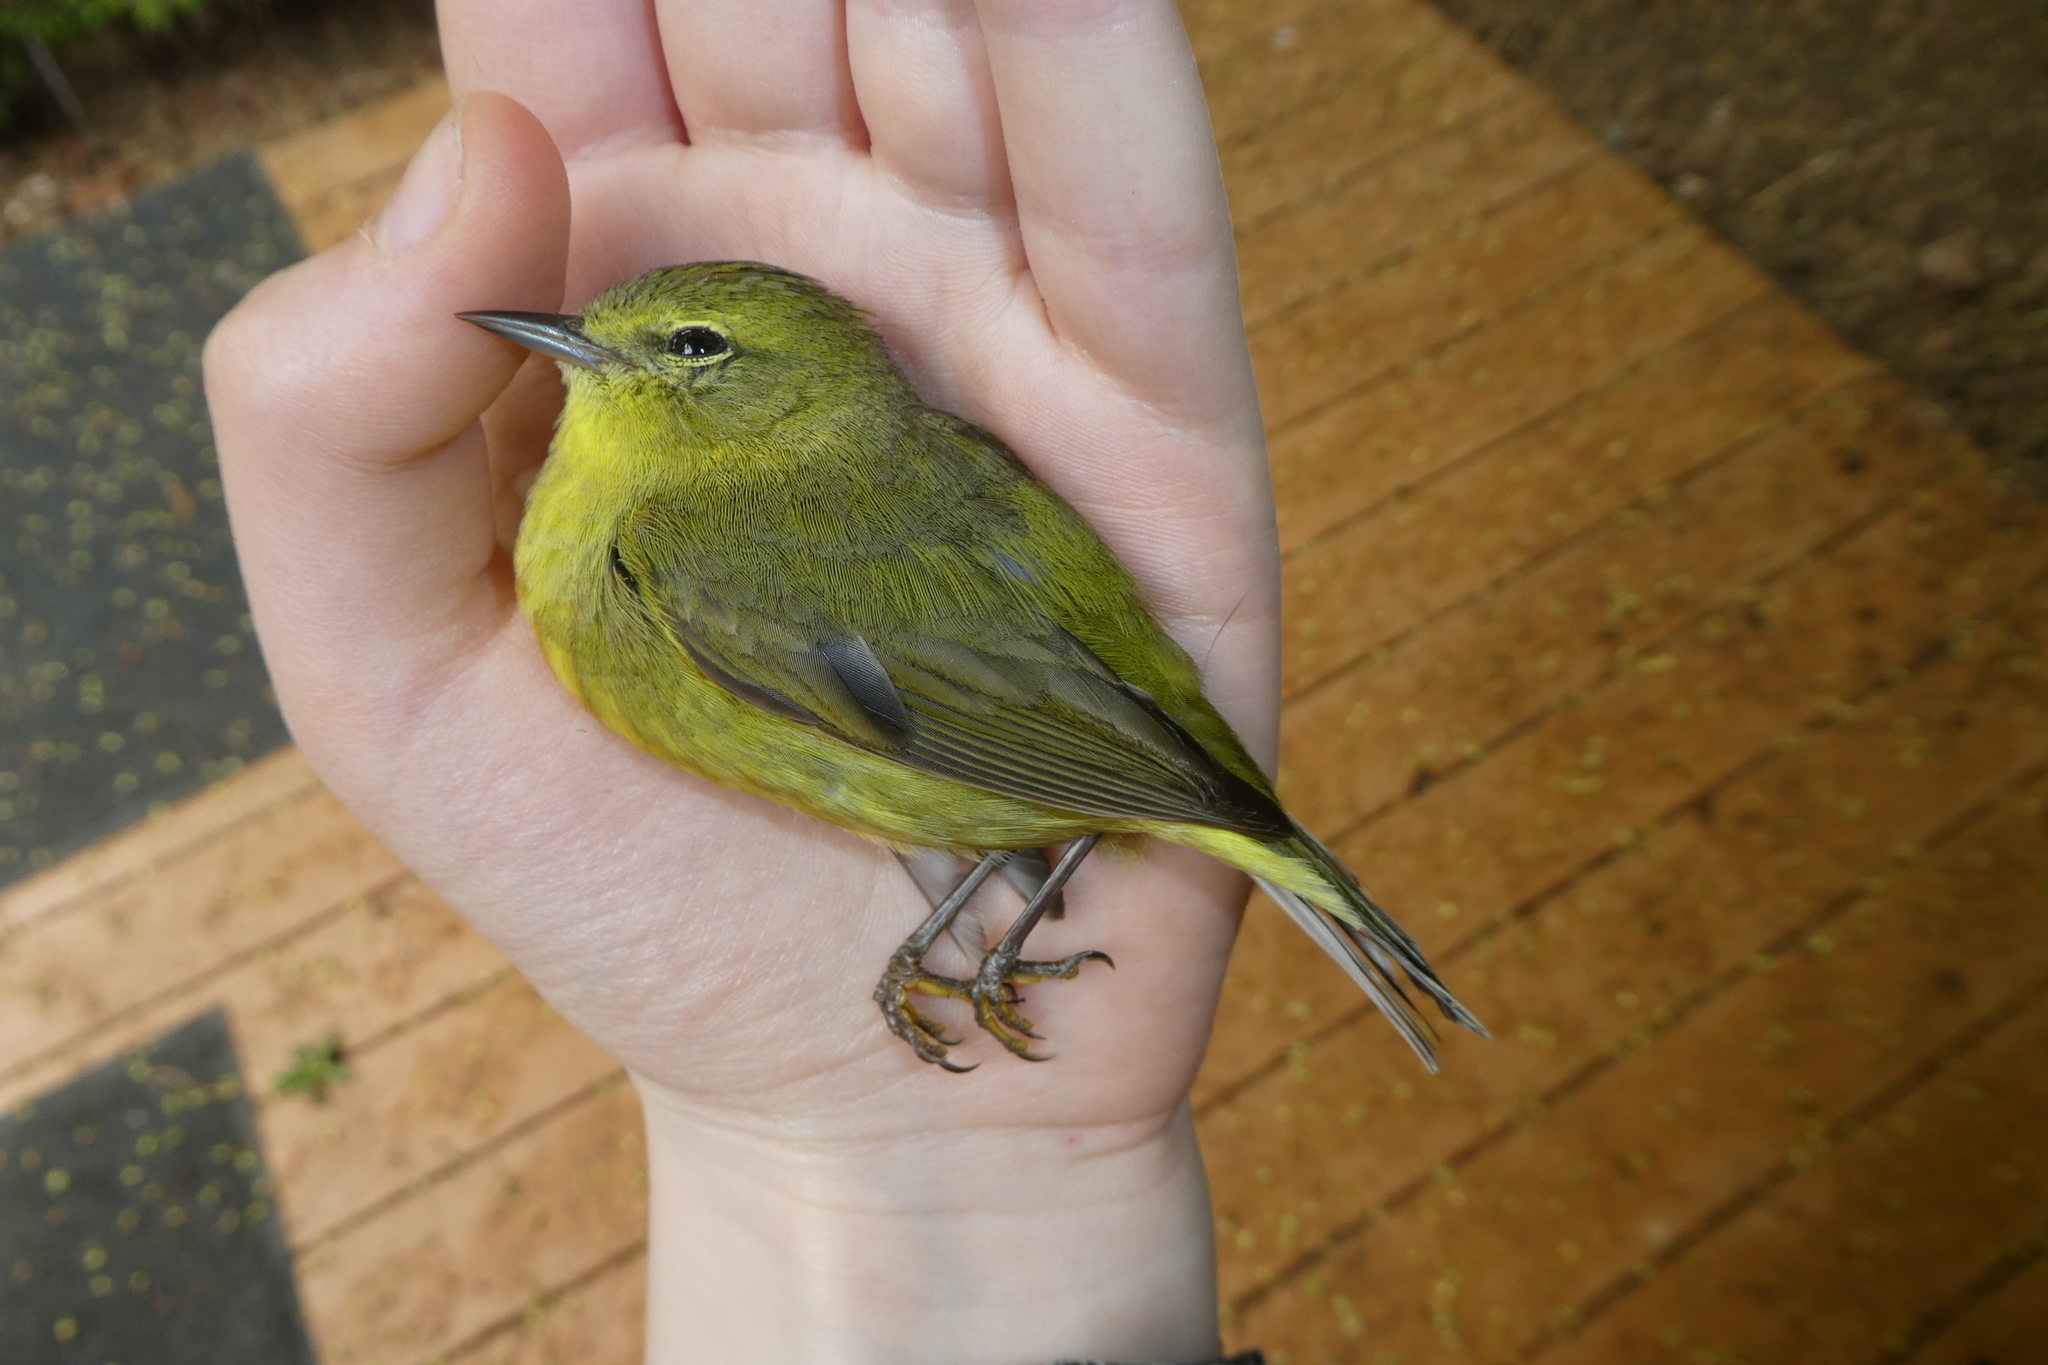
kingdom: Animalia
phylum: Chordata
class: Aves
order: Passeriformes
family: Parulidae
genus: Leiothlypis
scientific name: Leiothlypis celata
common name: Orange-crowned warbler
